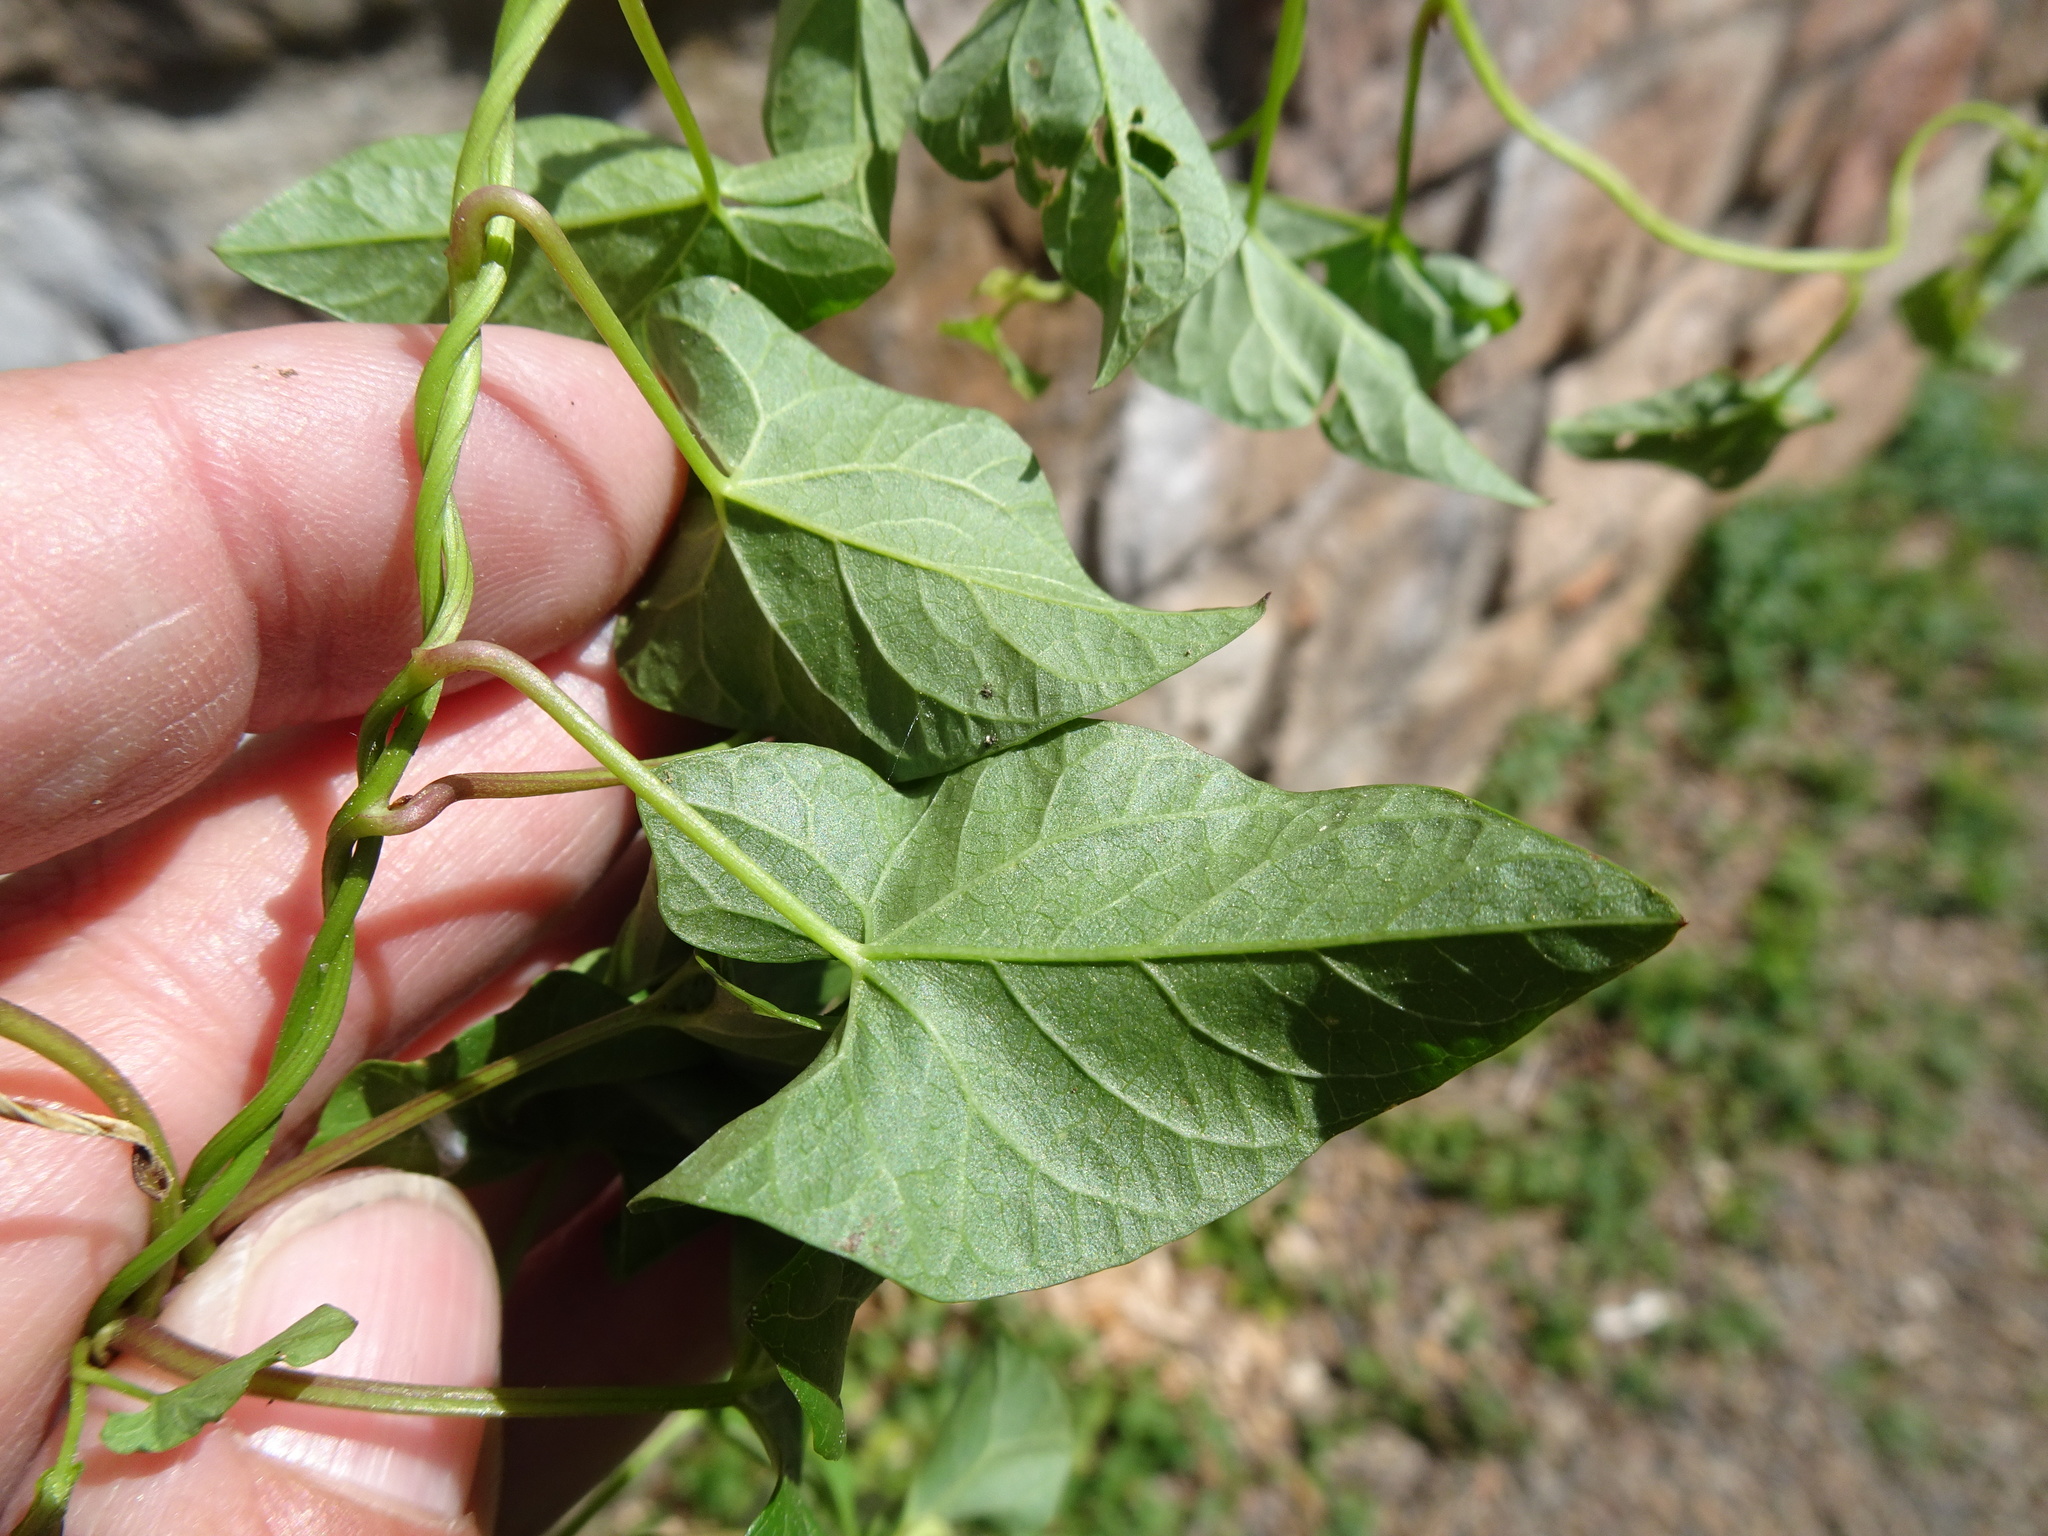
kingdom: Plantae
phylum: Tracheophyta
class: Magnoliopsida
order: Solanales
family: Convolvulaceae
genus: Calystegia
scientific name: Calystegia
